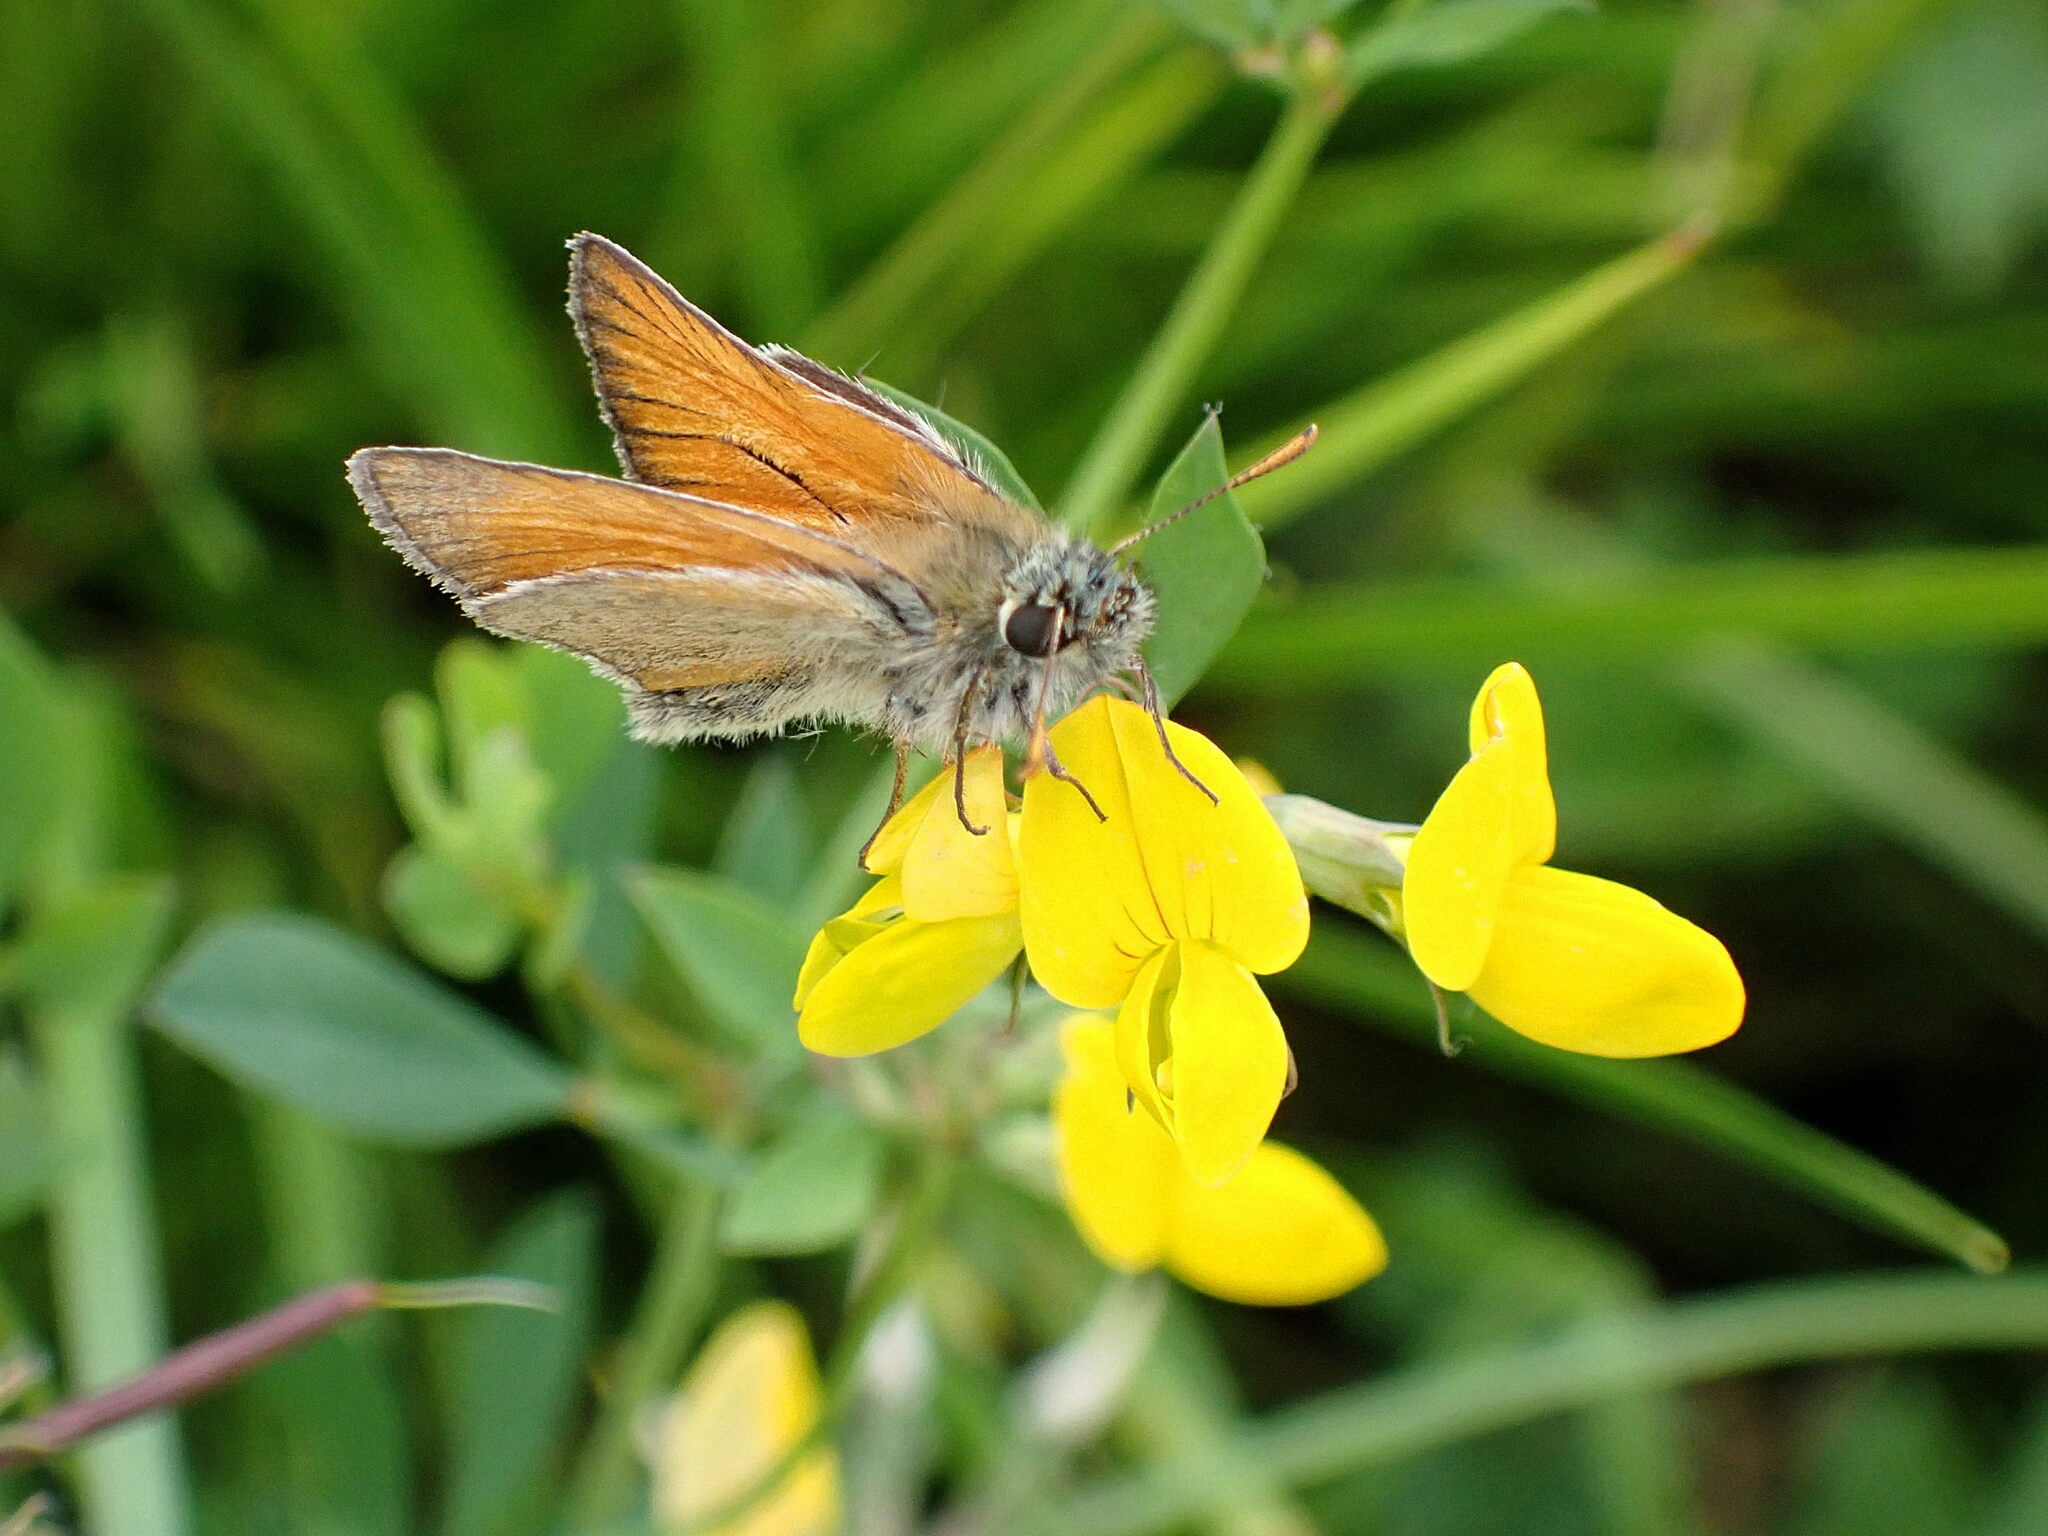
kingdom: Animalia
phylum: Arthropoda
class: Insecta
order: Lepidoptera
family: Hesperiidae
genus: Thymelicus
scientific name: Thymelicus sylvestris
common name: Small skipper
